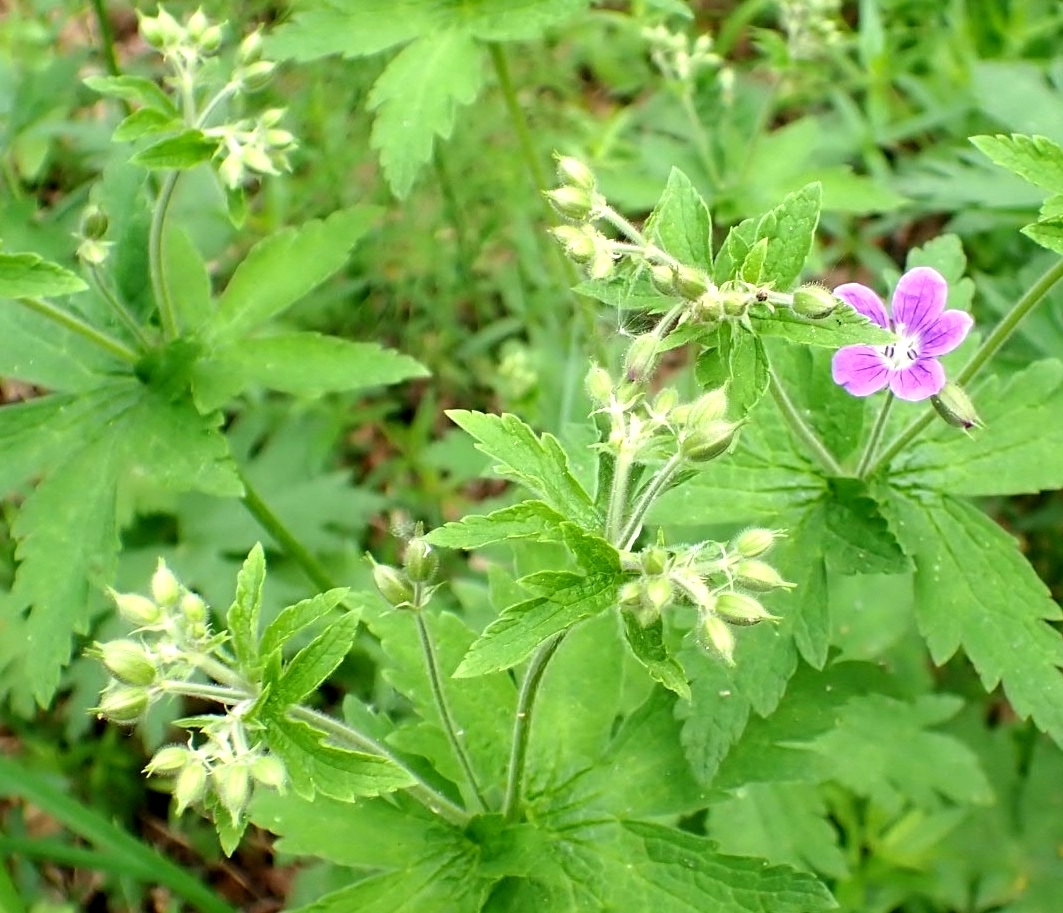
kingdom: Plantae
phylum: Tracheophyta
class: Magnoliopsida
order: Geraniales
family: Geraniaceae
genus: Geranium
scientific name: Geranium sylvaticum
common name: Wood crane's-bill
